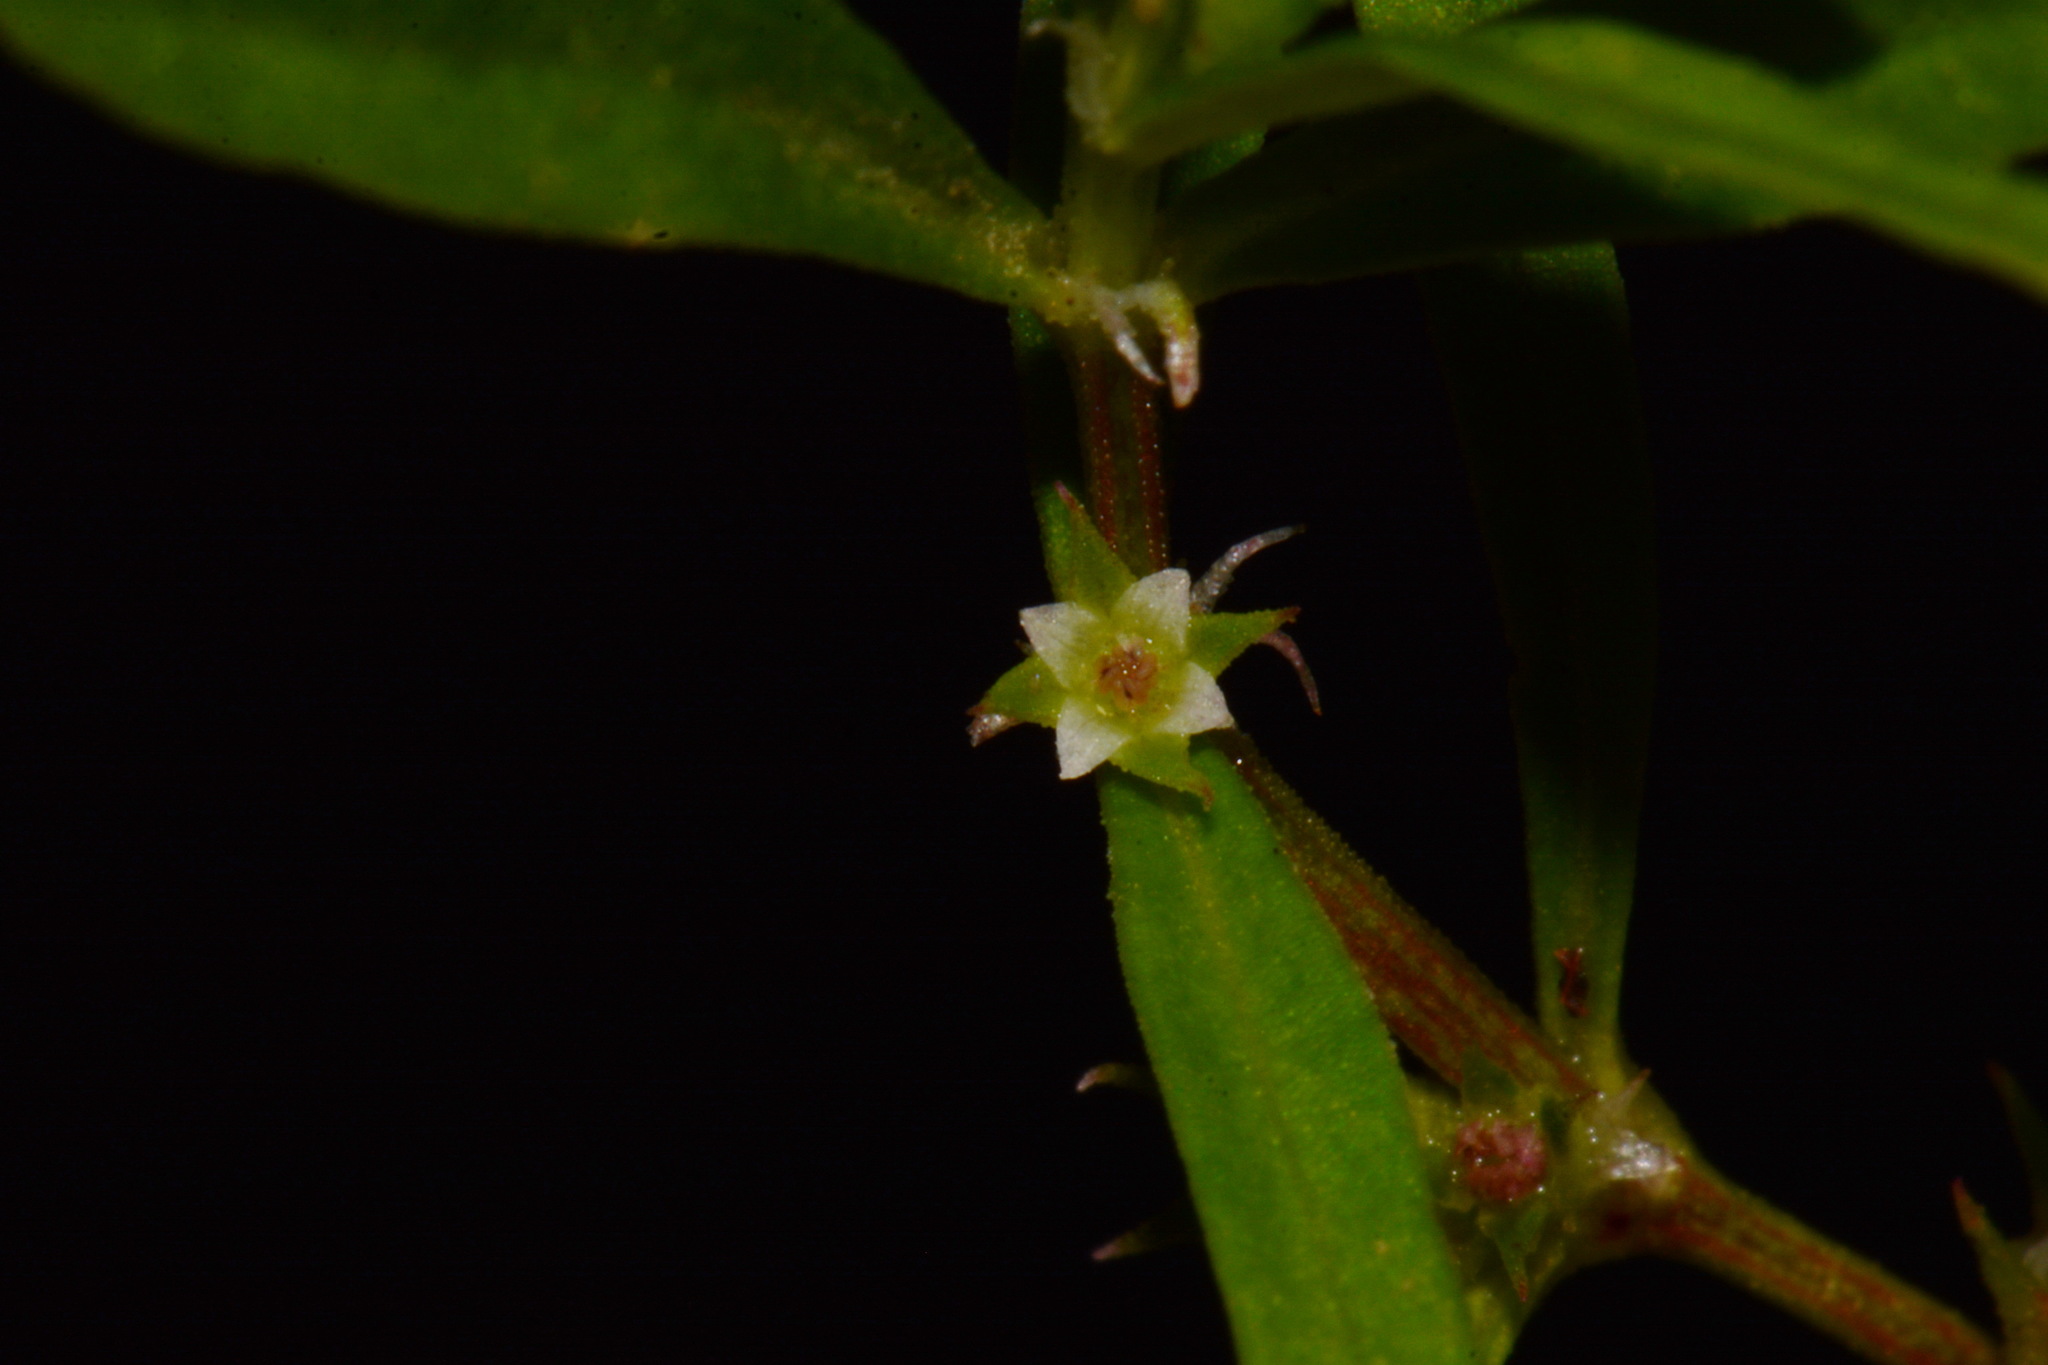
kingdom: Plantae
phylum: Tracheophyta
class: Magnoliopsida
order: Gentianales
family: Rubiaceae
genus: Oldenlandia
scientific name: Oldenlandia boscii
